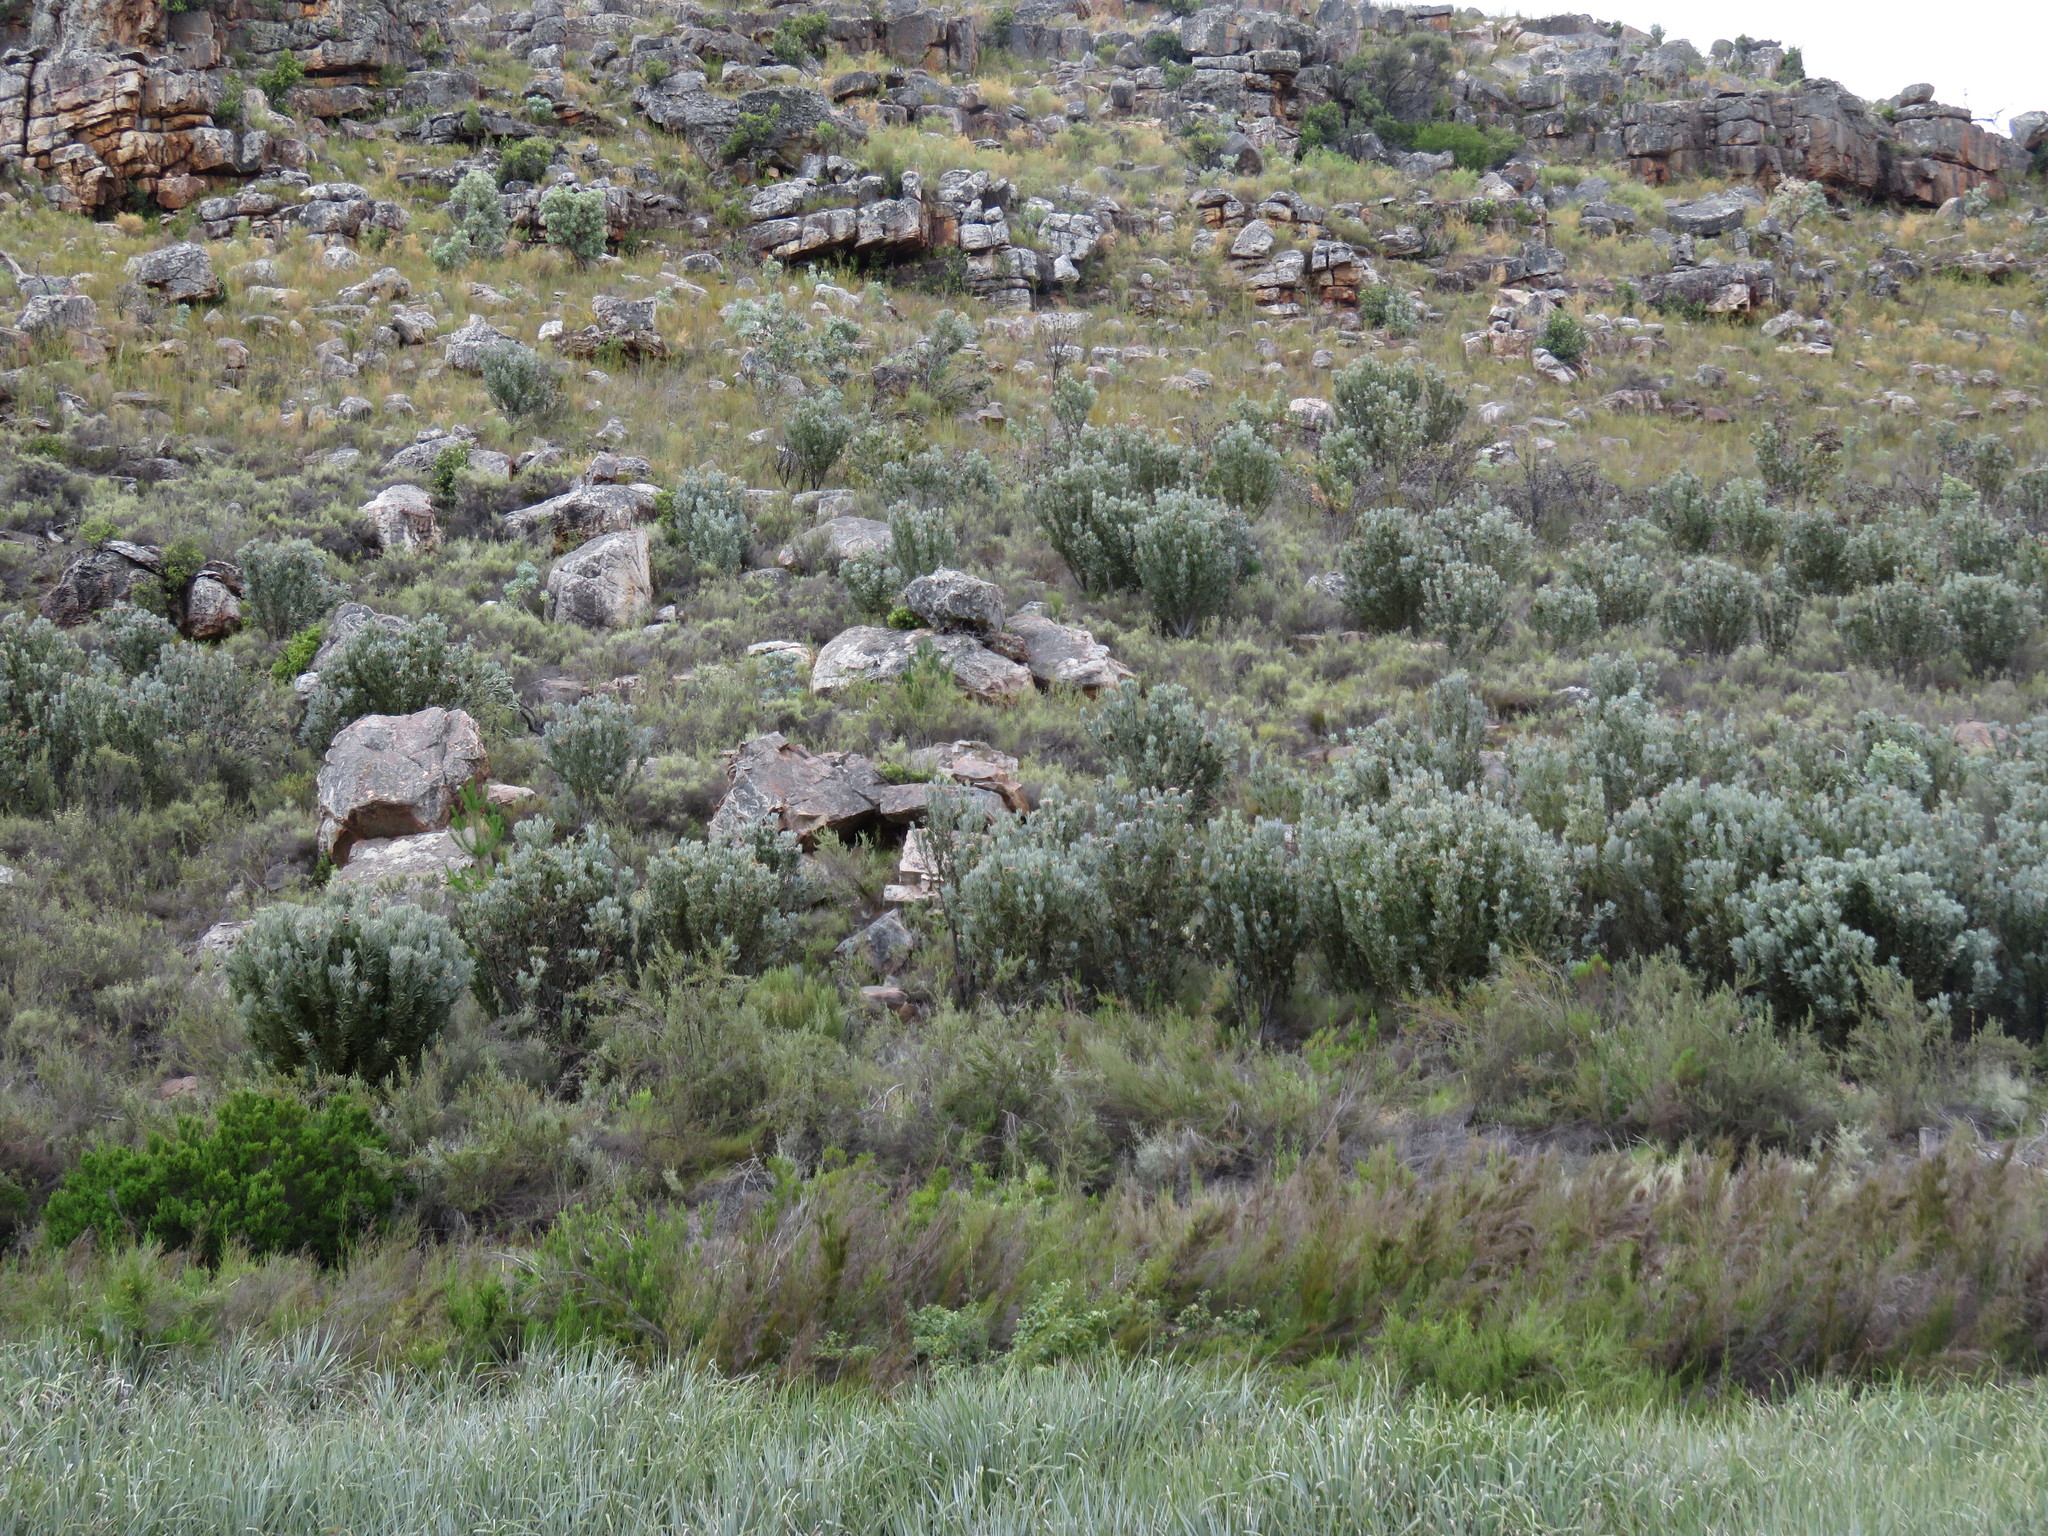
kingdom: Plantae
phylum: Tracheophyta
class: Magnoliopsida
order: Proteales
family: Proteaceae
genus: Protea
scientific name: Protea laurifolia
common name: Grey-leaf sugarbsh
